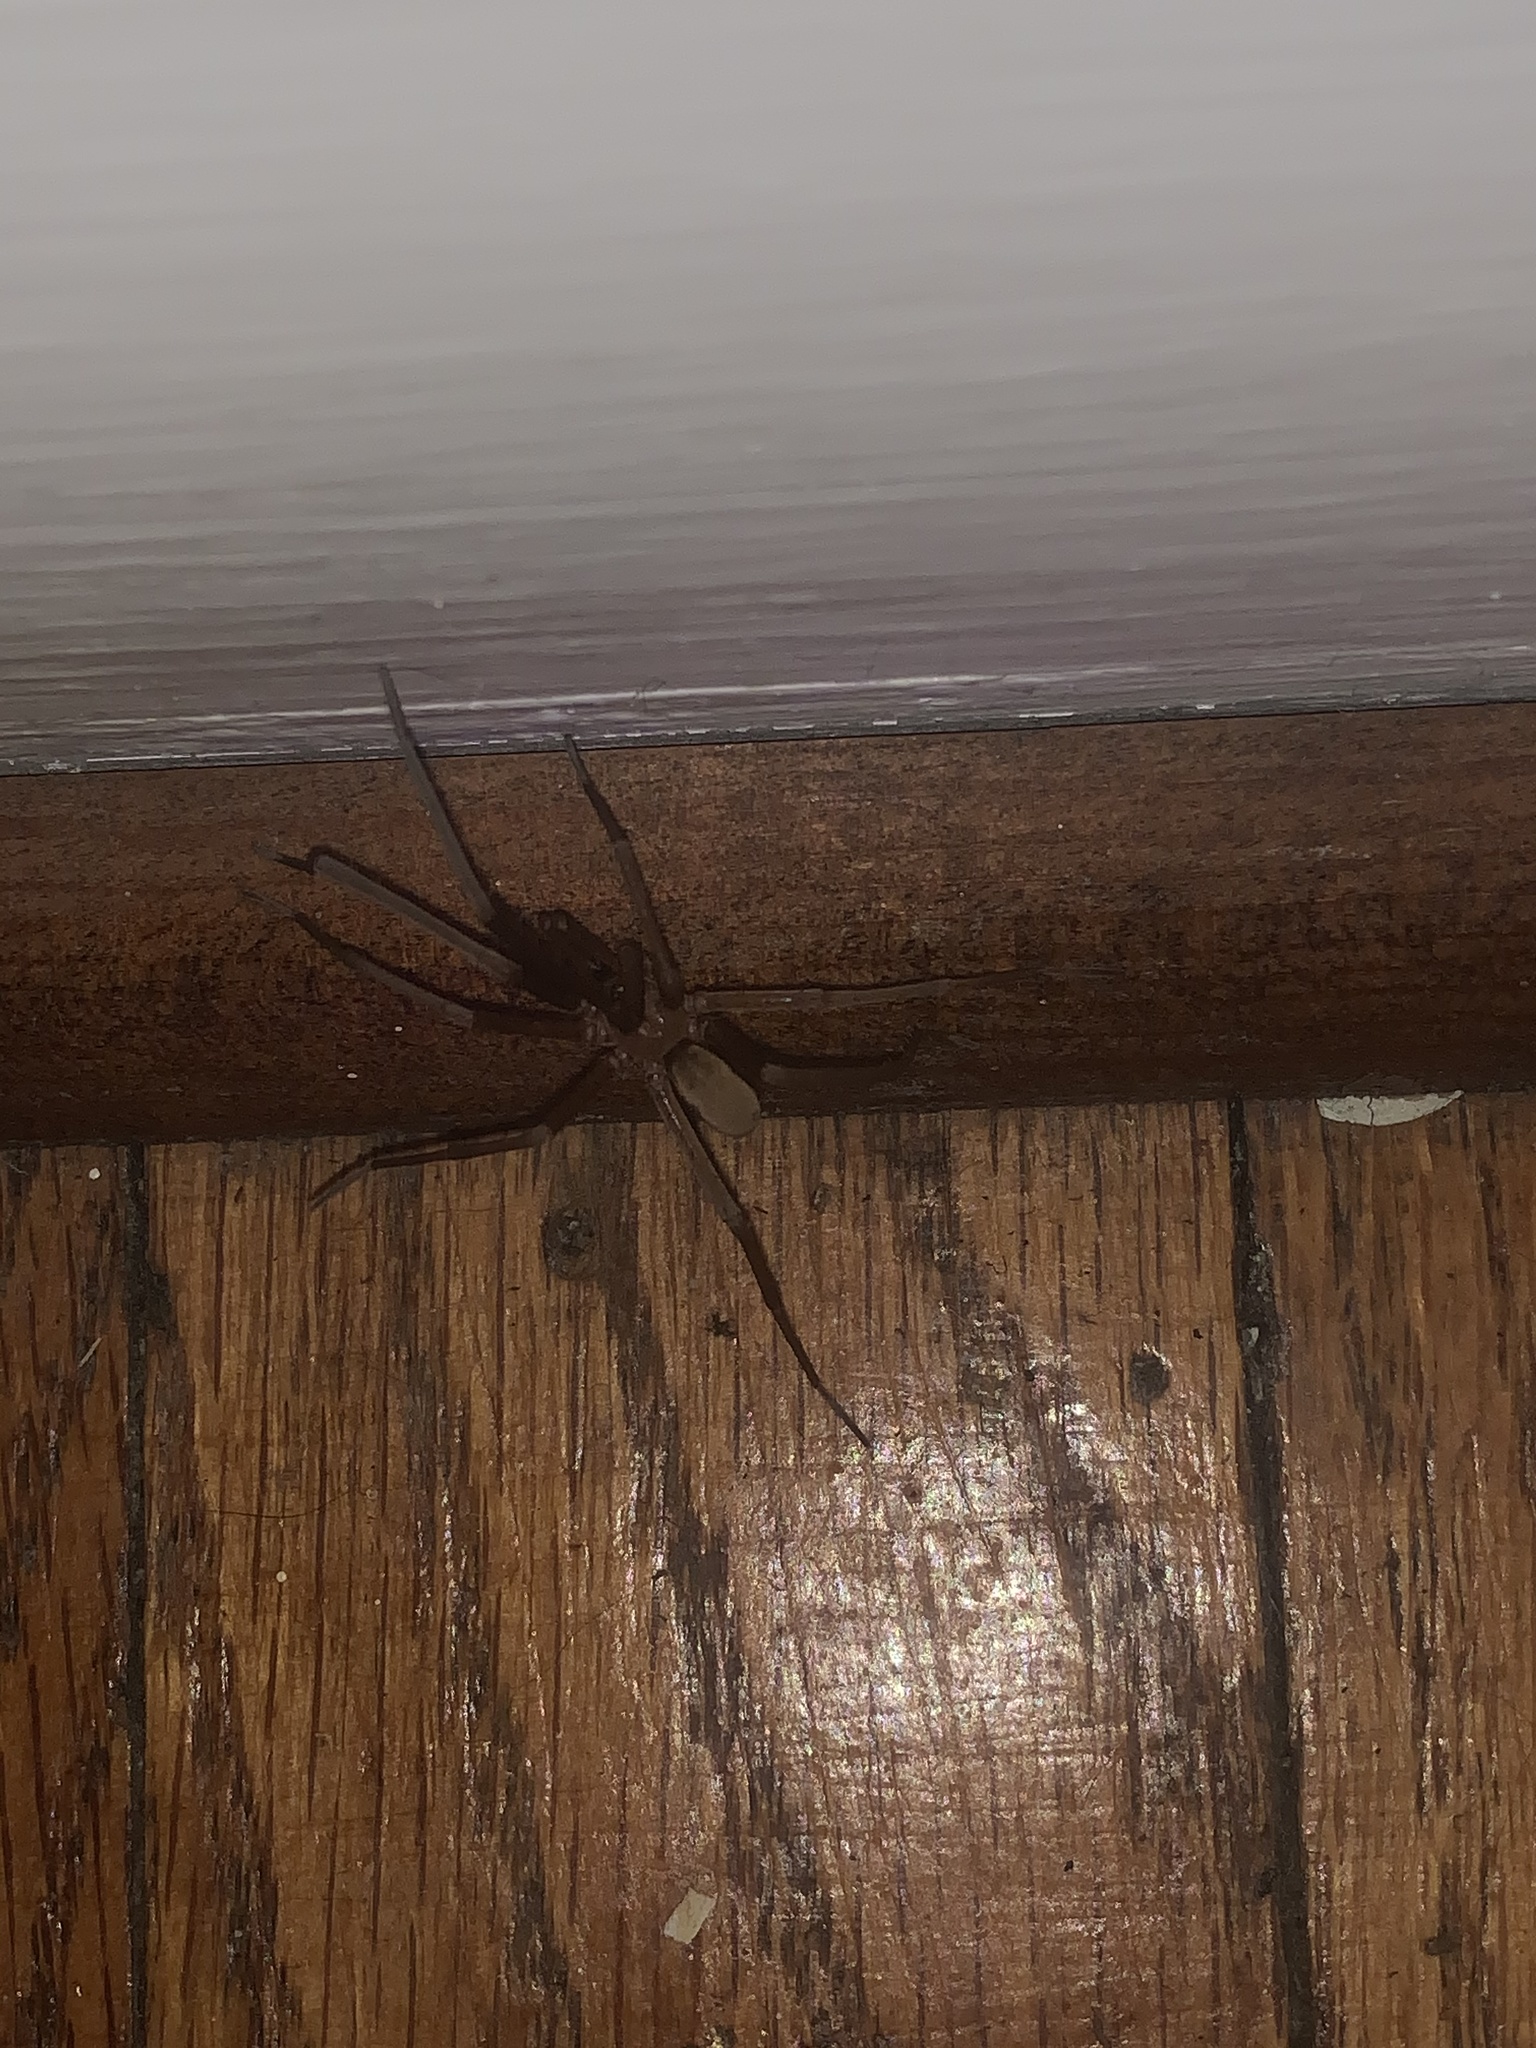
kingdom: Animalia
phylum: Arthropoda
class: Arachnida
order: Araneae
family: Filistatidae
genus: Kukulcania
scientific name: Kukulcania hibernalis
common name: Crevice weaver
